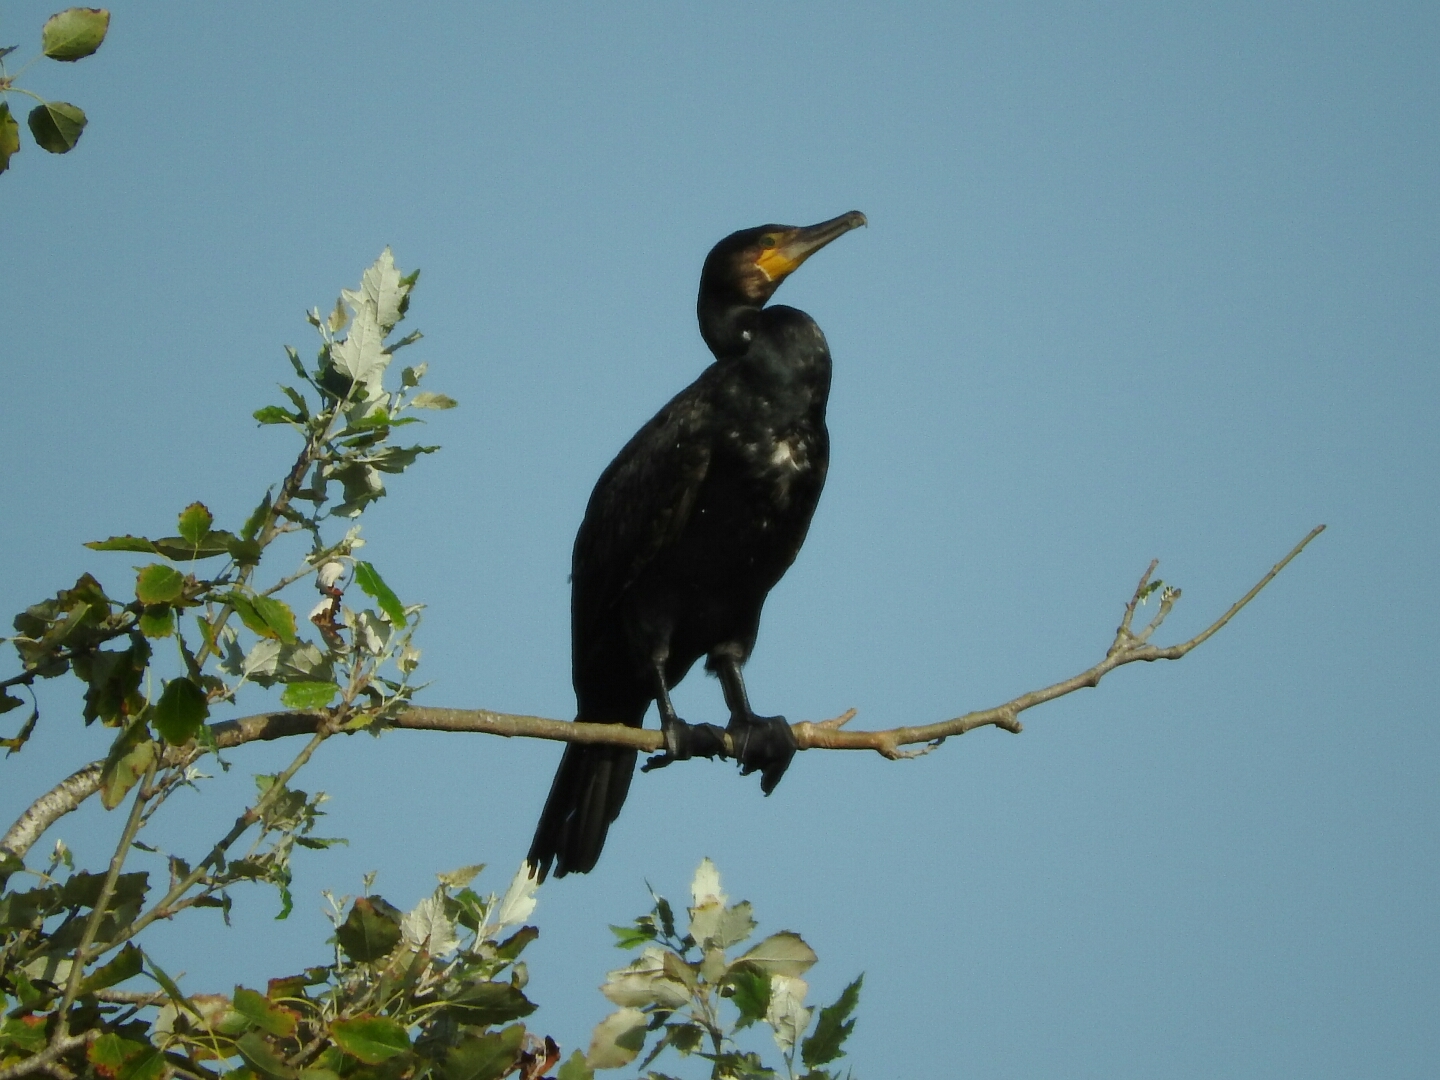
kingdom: Animalia
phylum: Chordata
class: Aves
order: Suliformes
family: Phalacrocoracidae
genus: Phalacrocorax
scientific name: Phalacrocorax carbo
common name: Great cormorant
